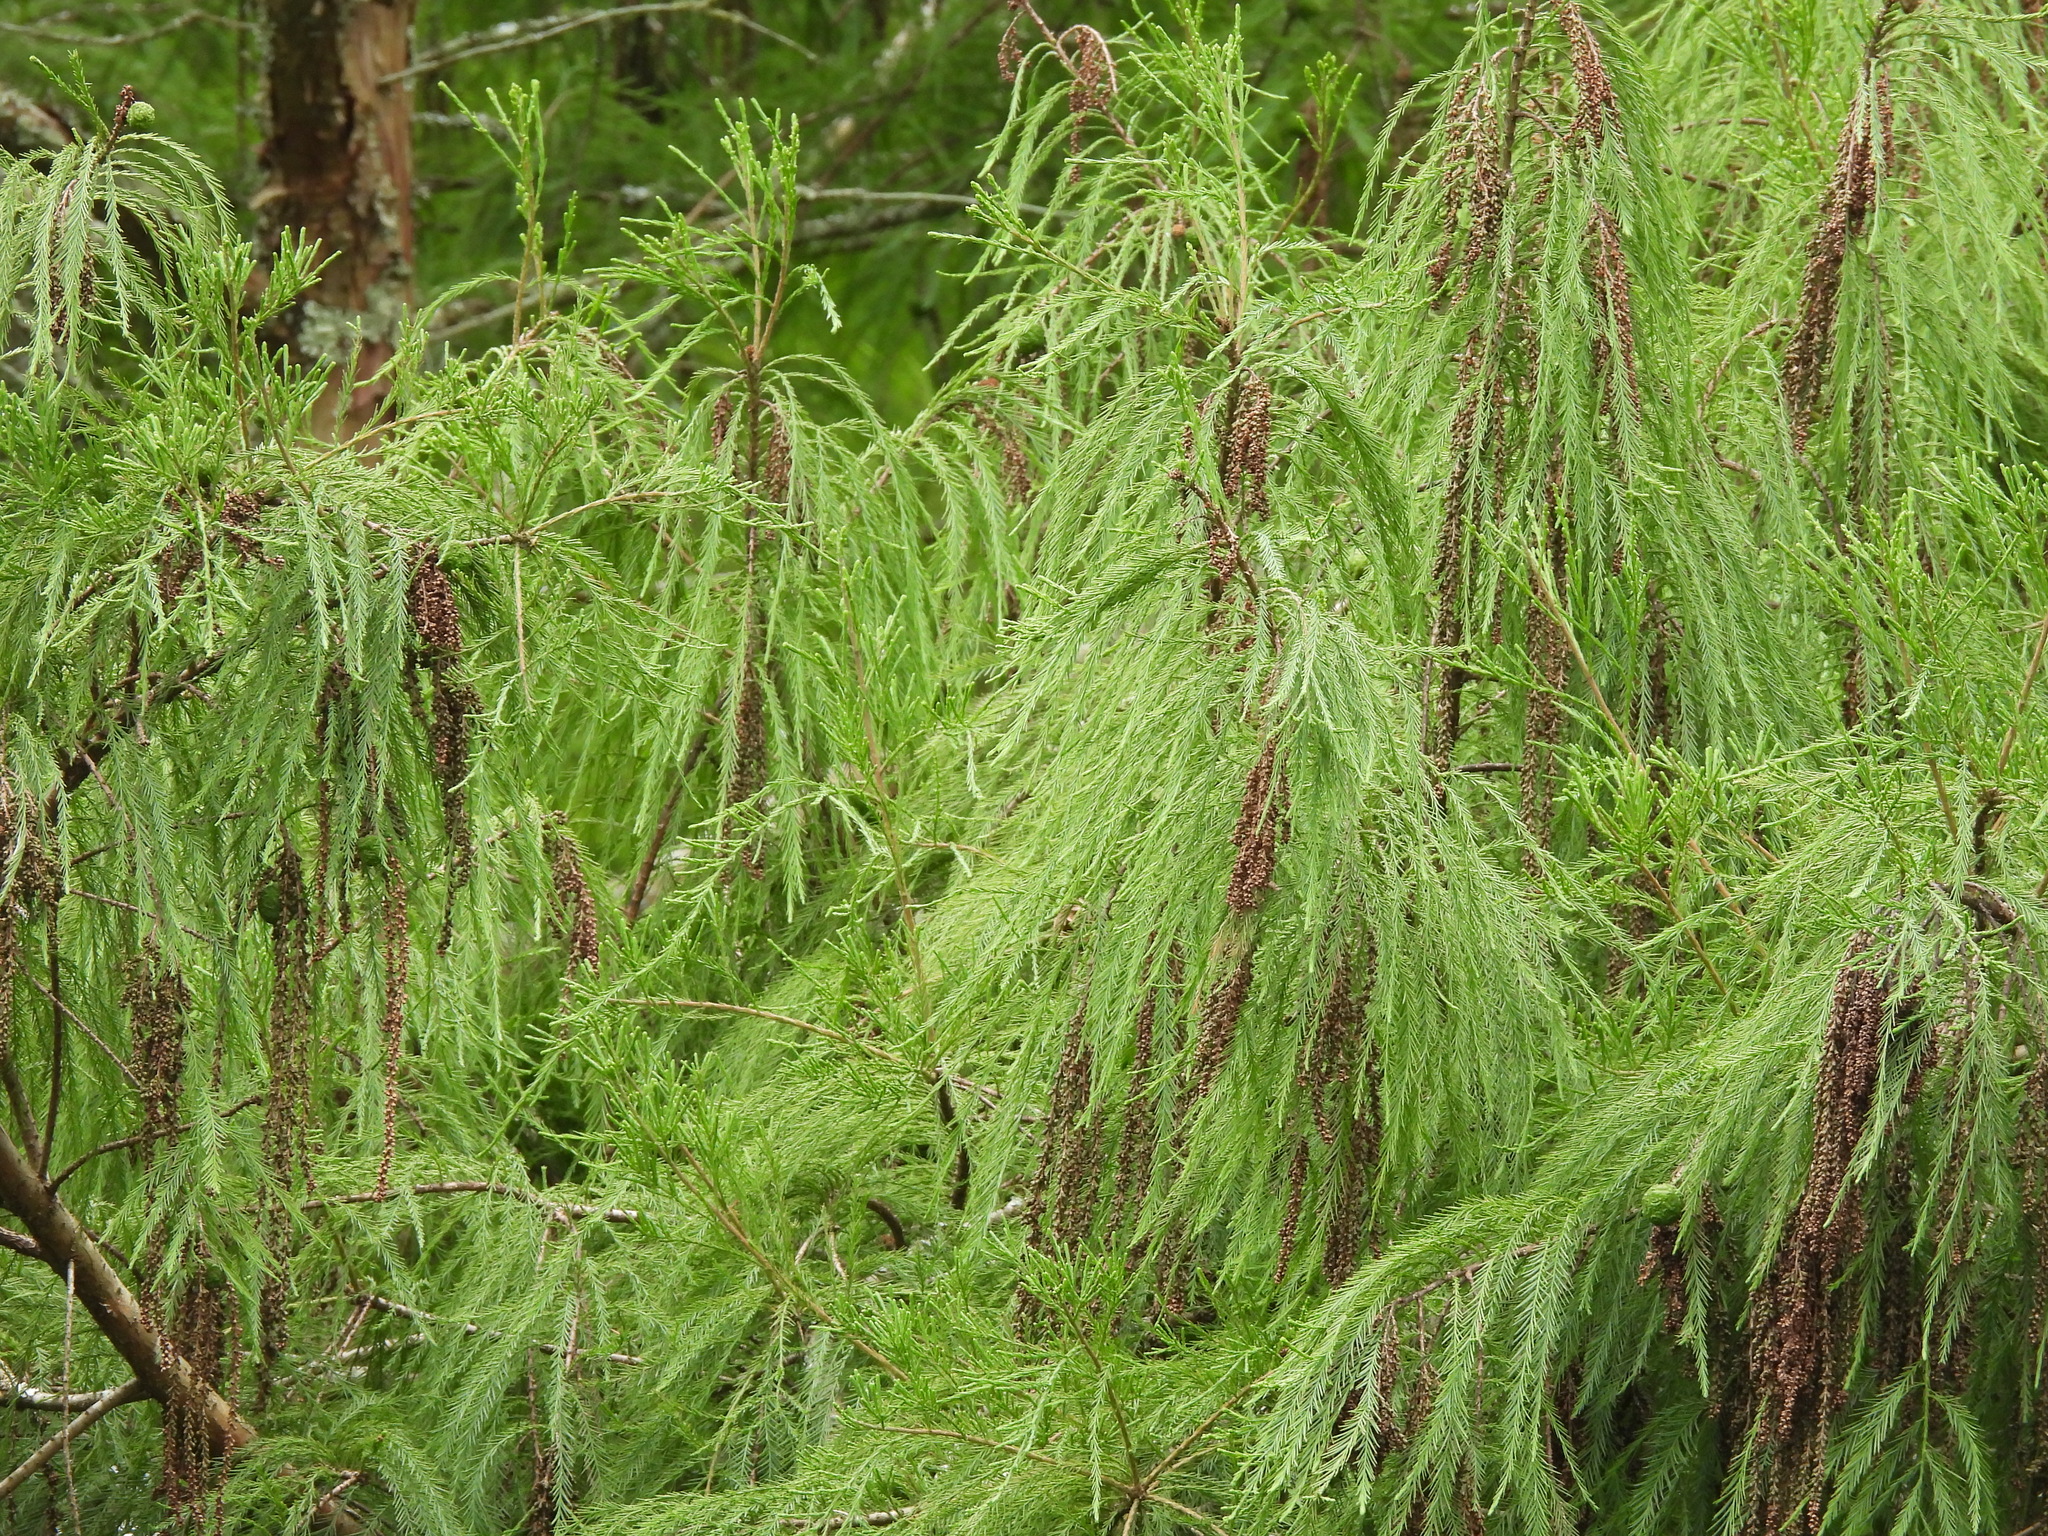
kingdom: Plantae
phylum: Tracheophyta
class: Pinopsida
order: Pinales
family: Cupressaceae
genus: Taxodium
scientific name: Taxodium distichum
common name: Bald cypress
